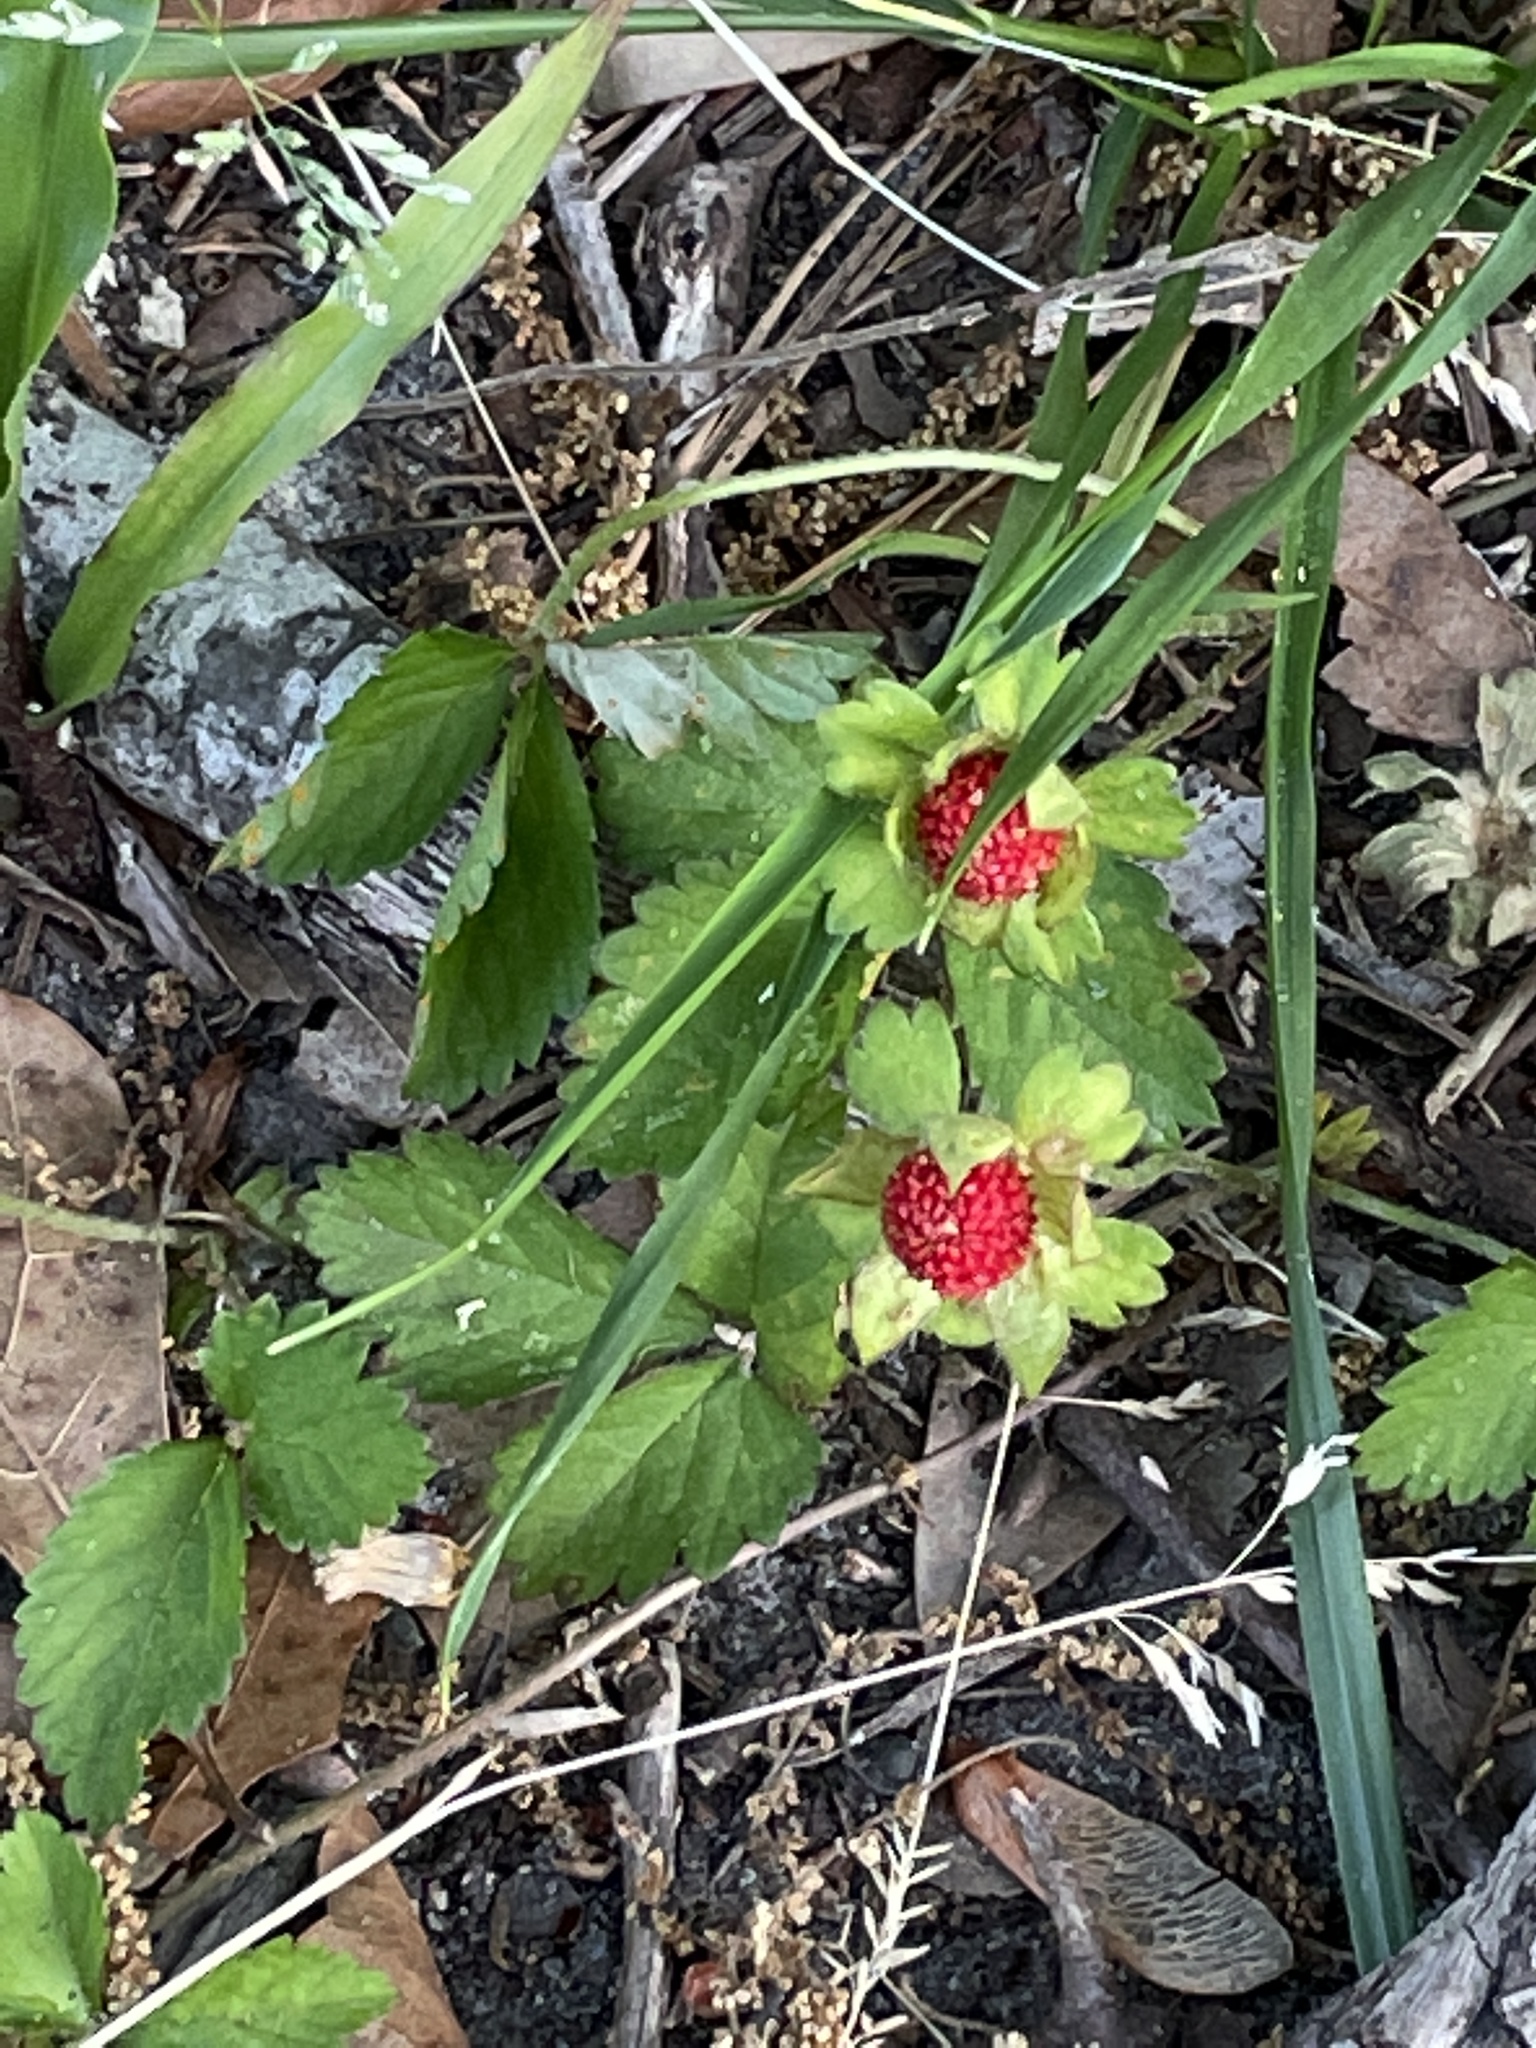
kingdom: Plantae
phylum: Tracheophyta
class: Magnoliopsida
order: Rosales
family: Rosaceae
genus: Potentilla
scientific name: Potentilla indica
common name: Yellow-flowered strawberry
